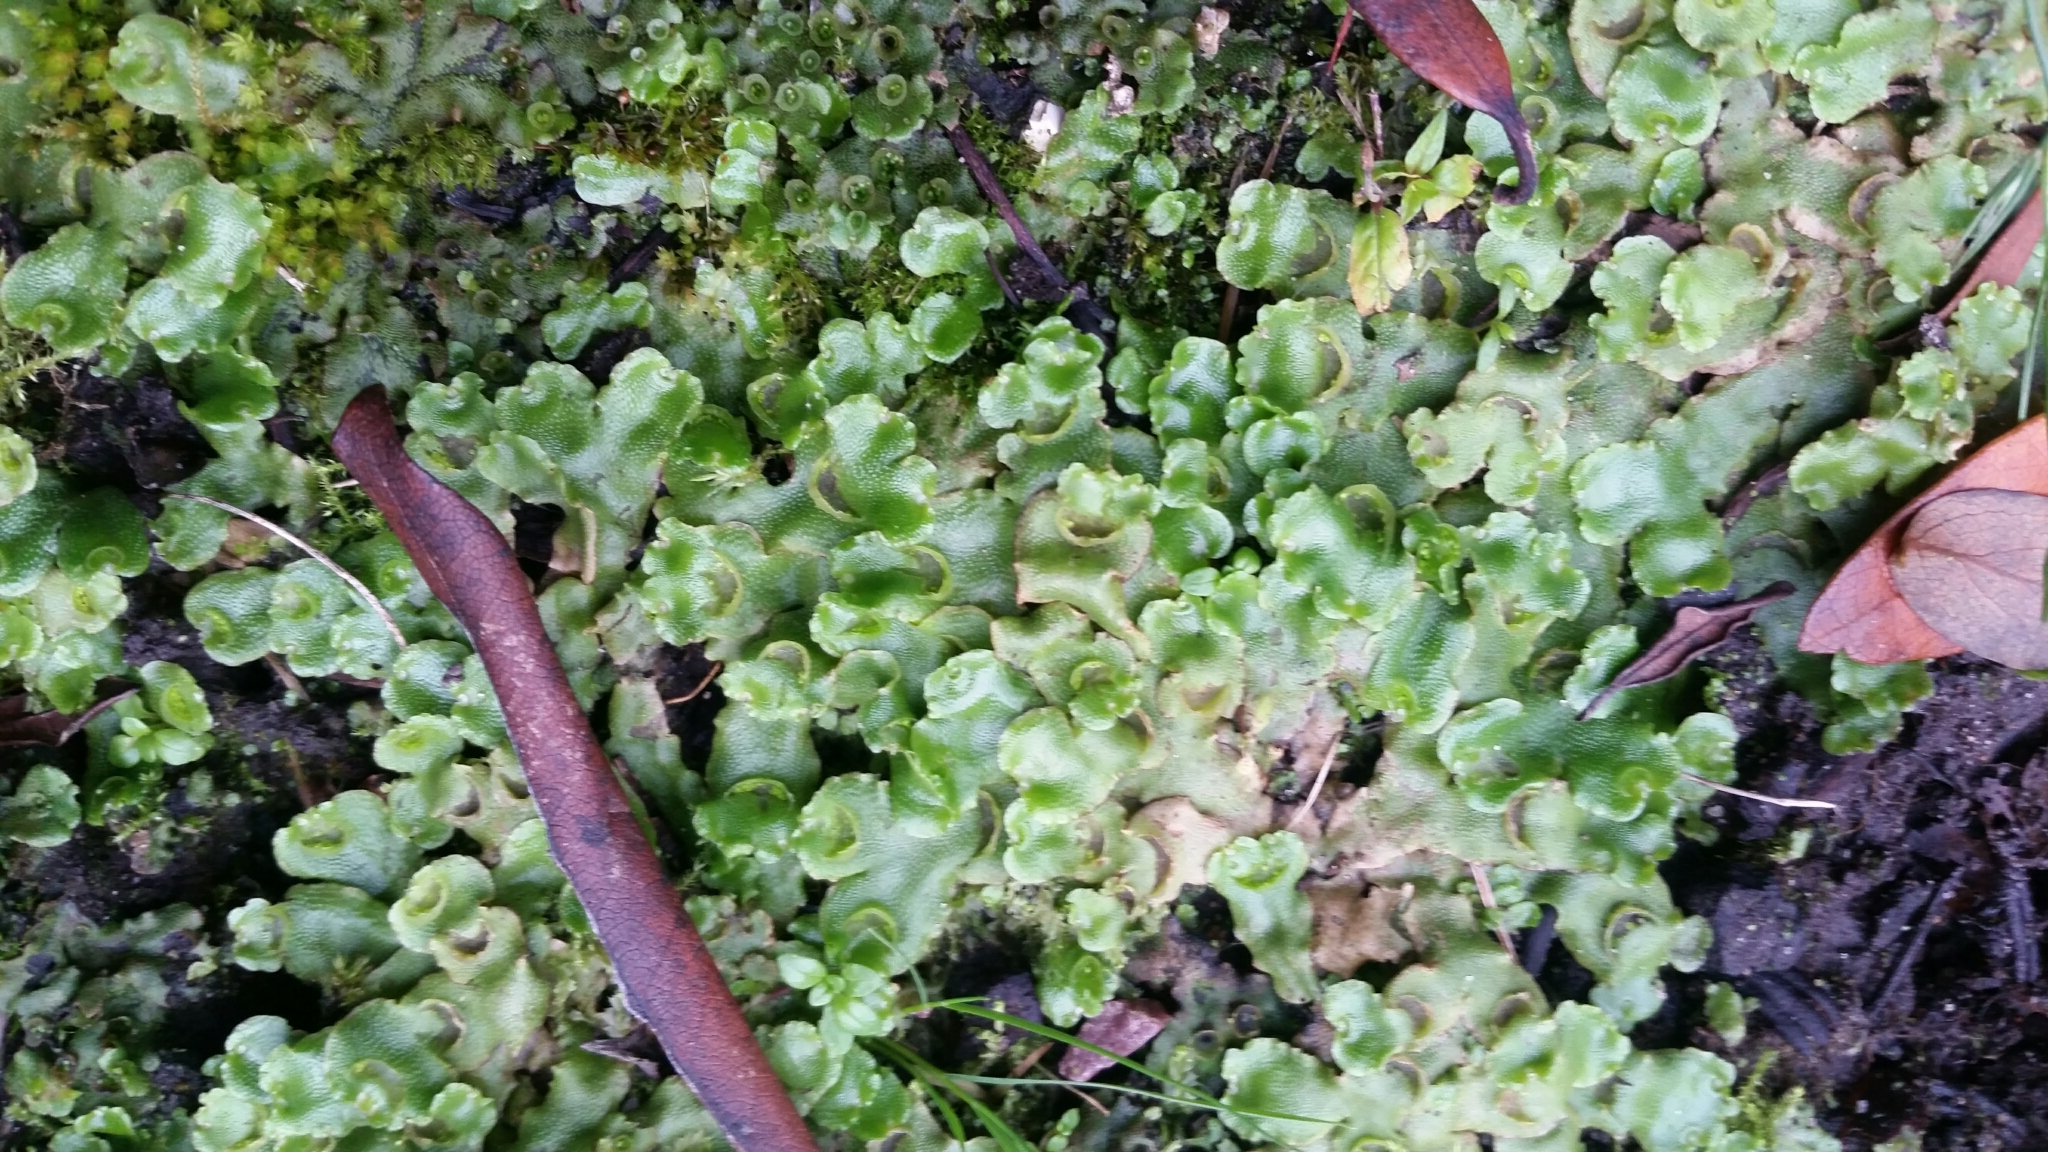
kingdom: Plantae
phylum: Marchantiophyta
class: Marchantiopsida
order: Lunulariales
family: Lunulariaceae
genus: Lunularia
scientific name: Lunularia cruciata
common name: Crescent-cup liverwort
